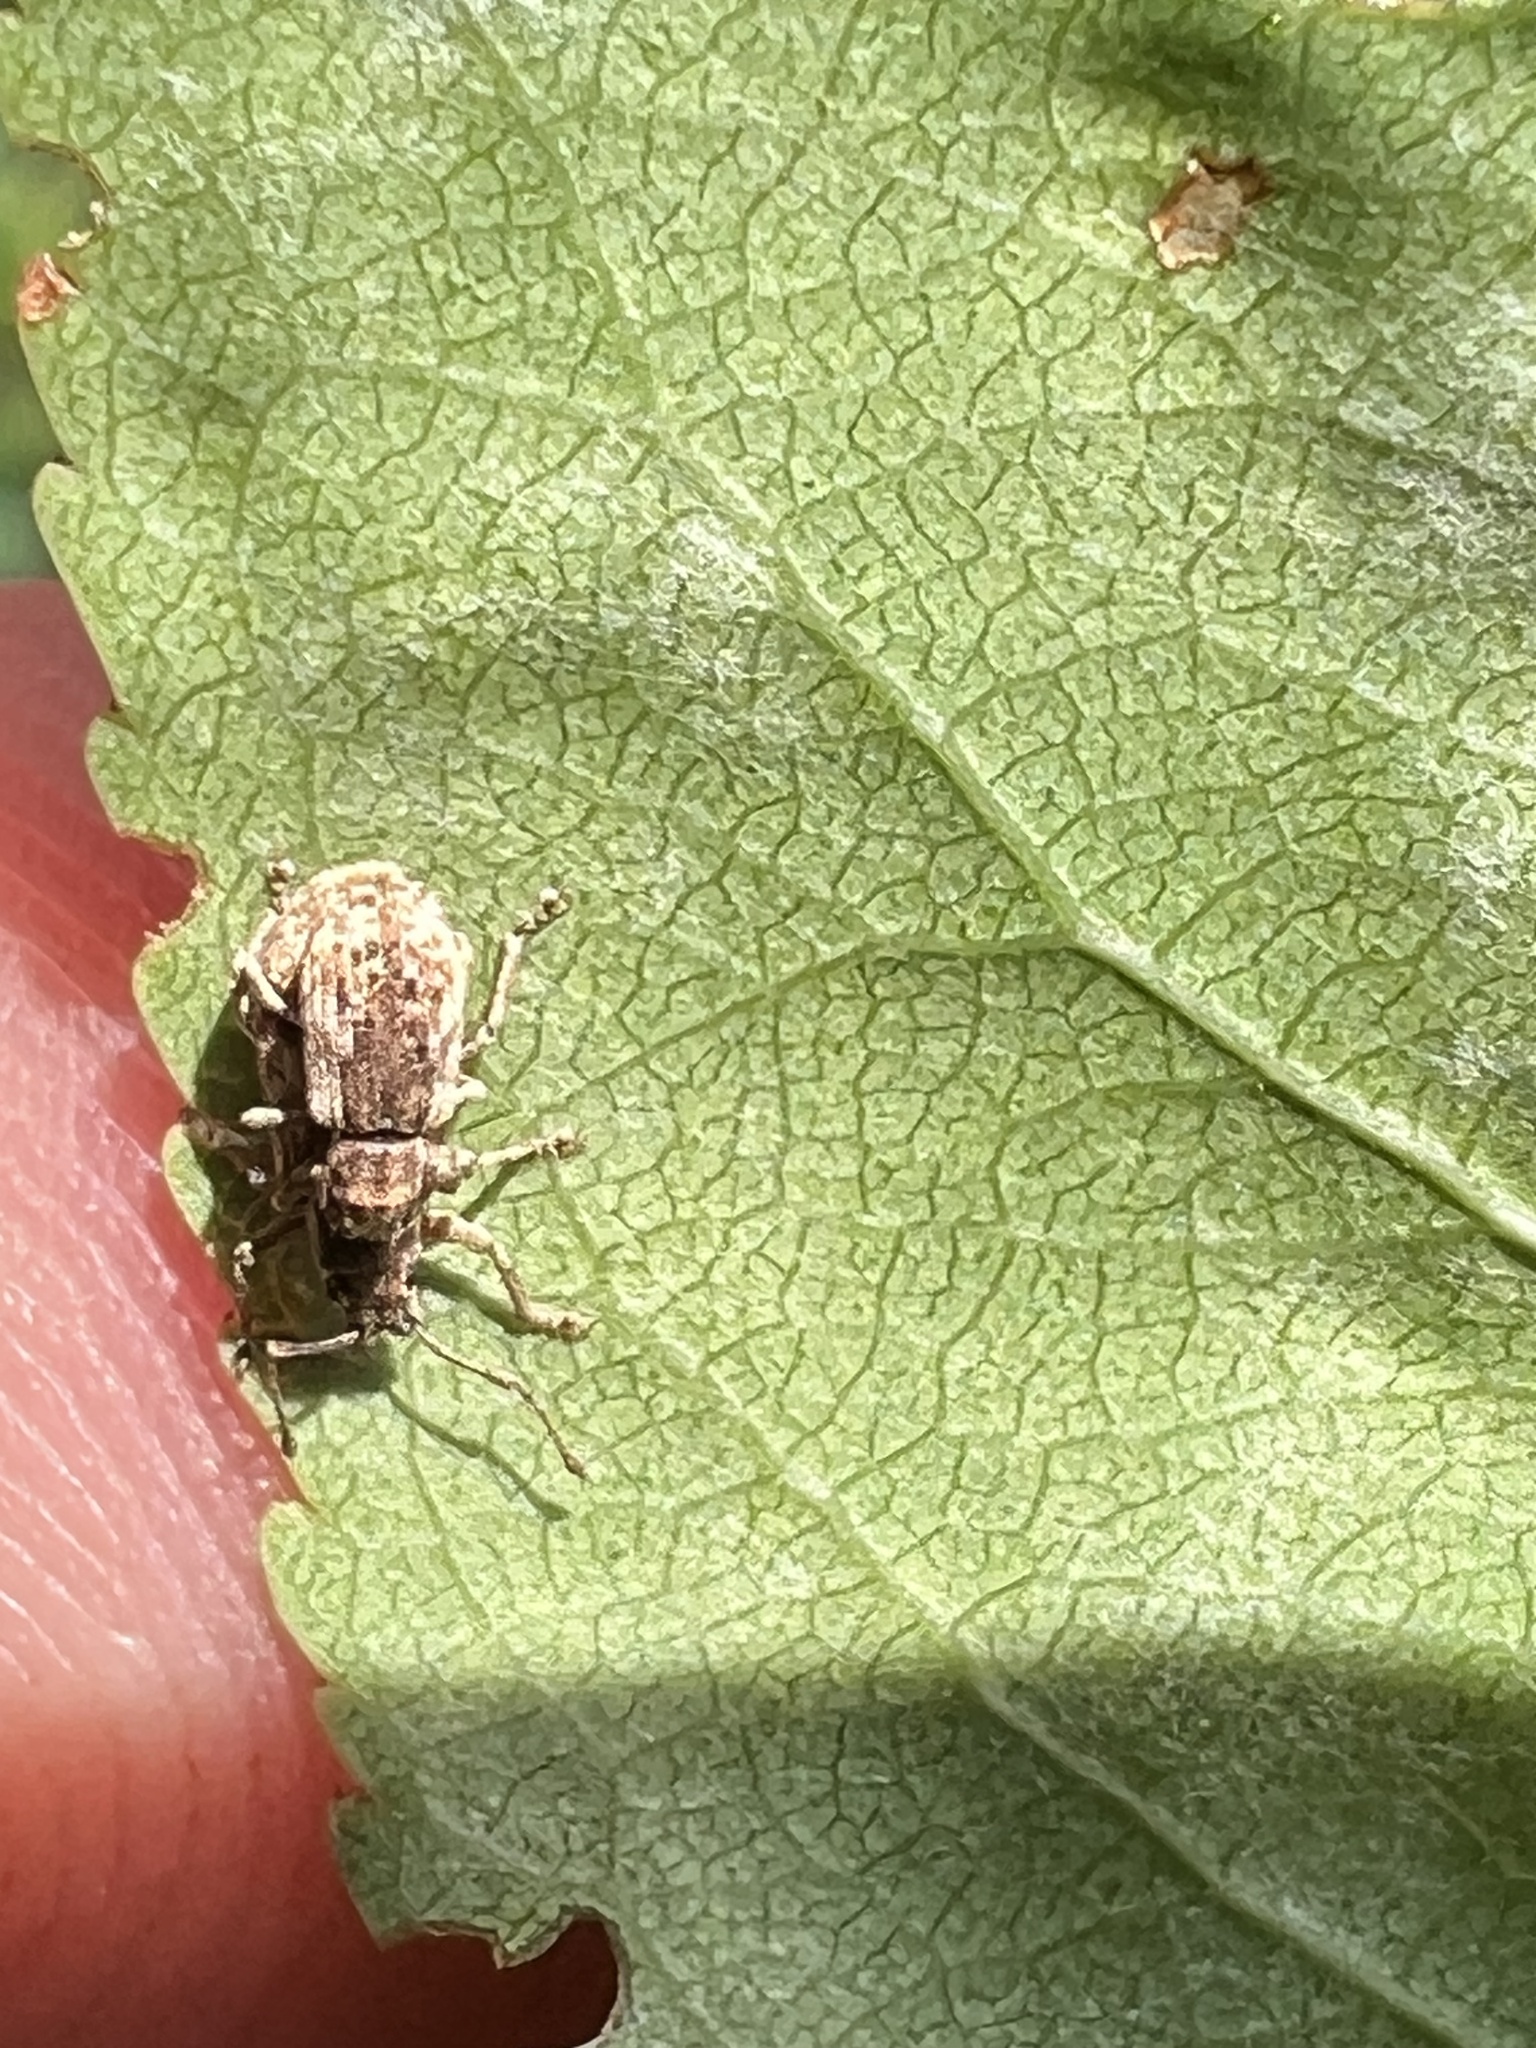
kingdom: Animalia
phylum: Arthropoda
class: Insecta
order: Coleoptera
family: Curculionidae
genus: Pseudoedophrys
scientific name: Pseudoedophrys hilleri
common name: Weevil
